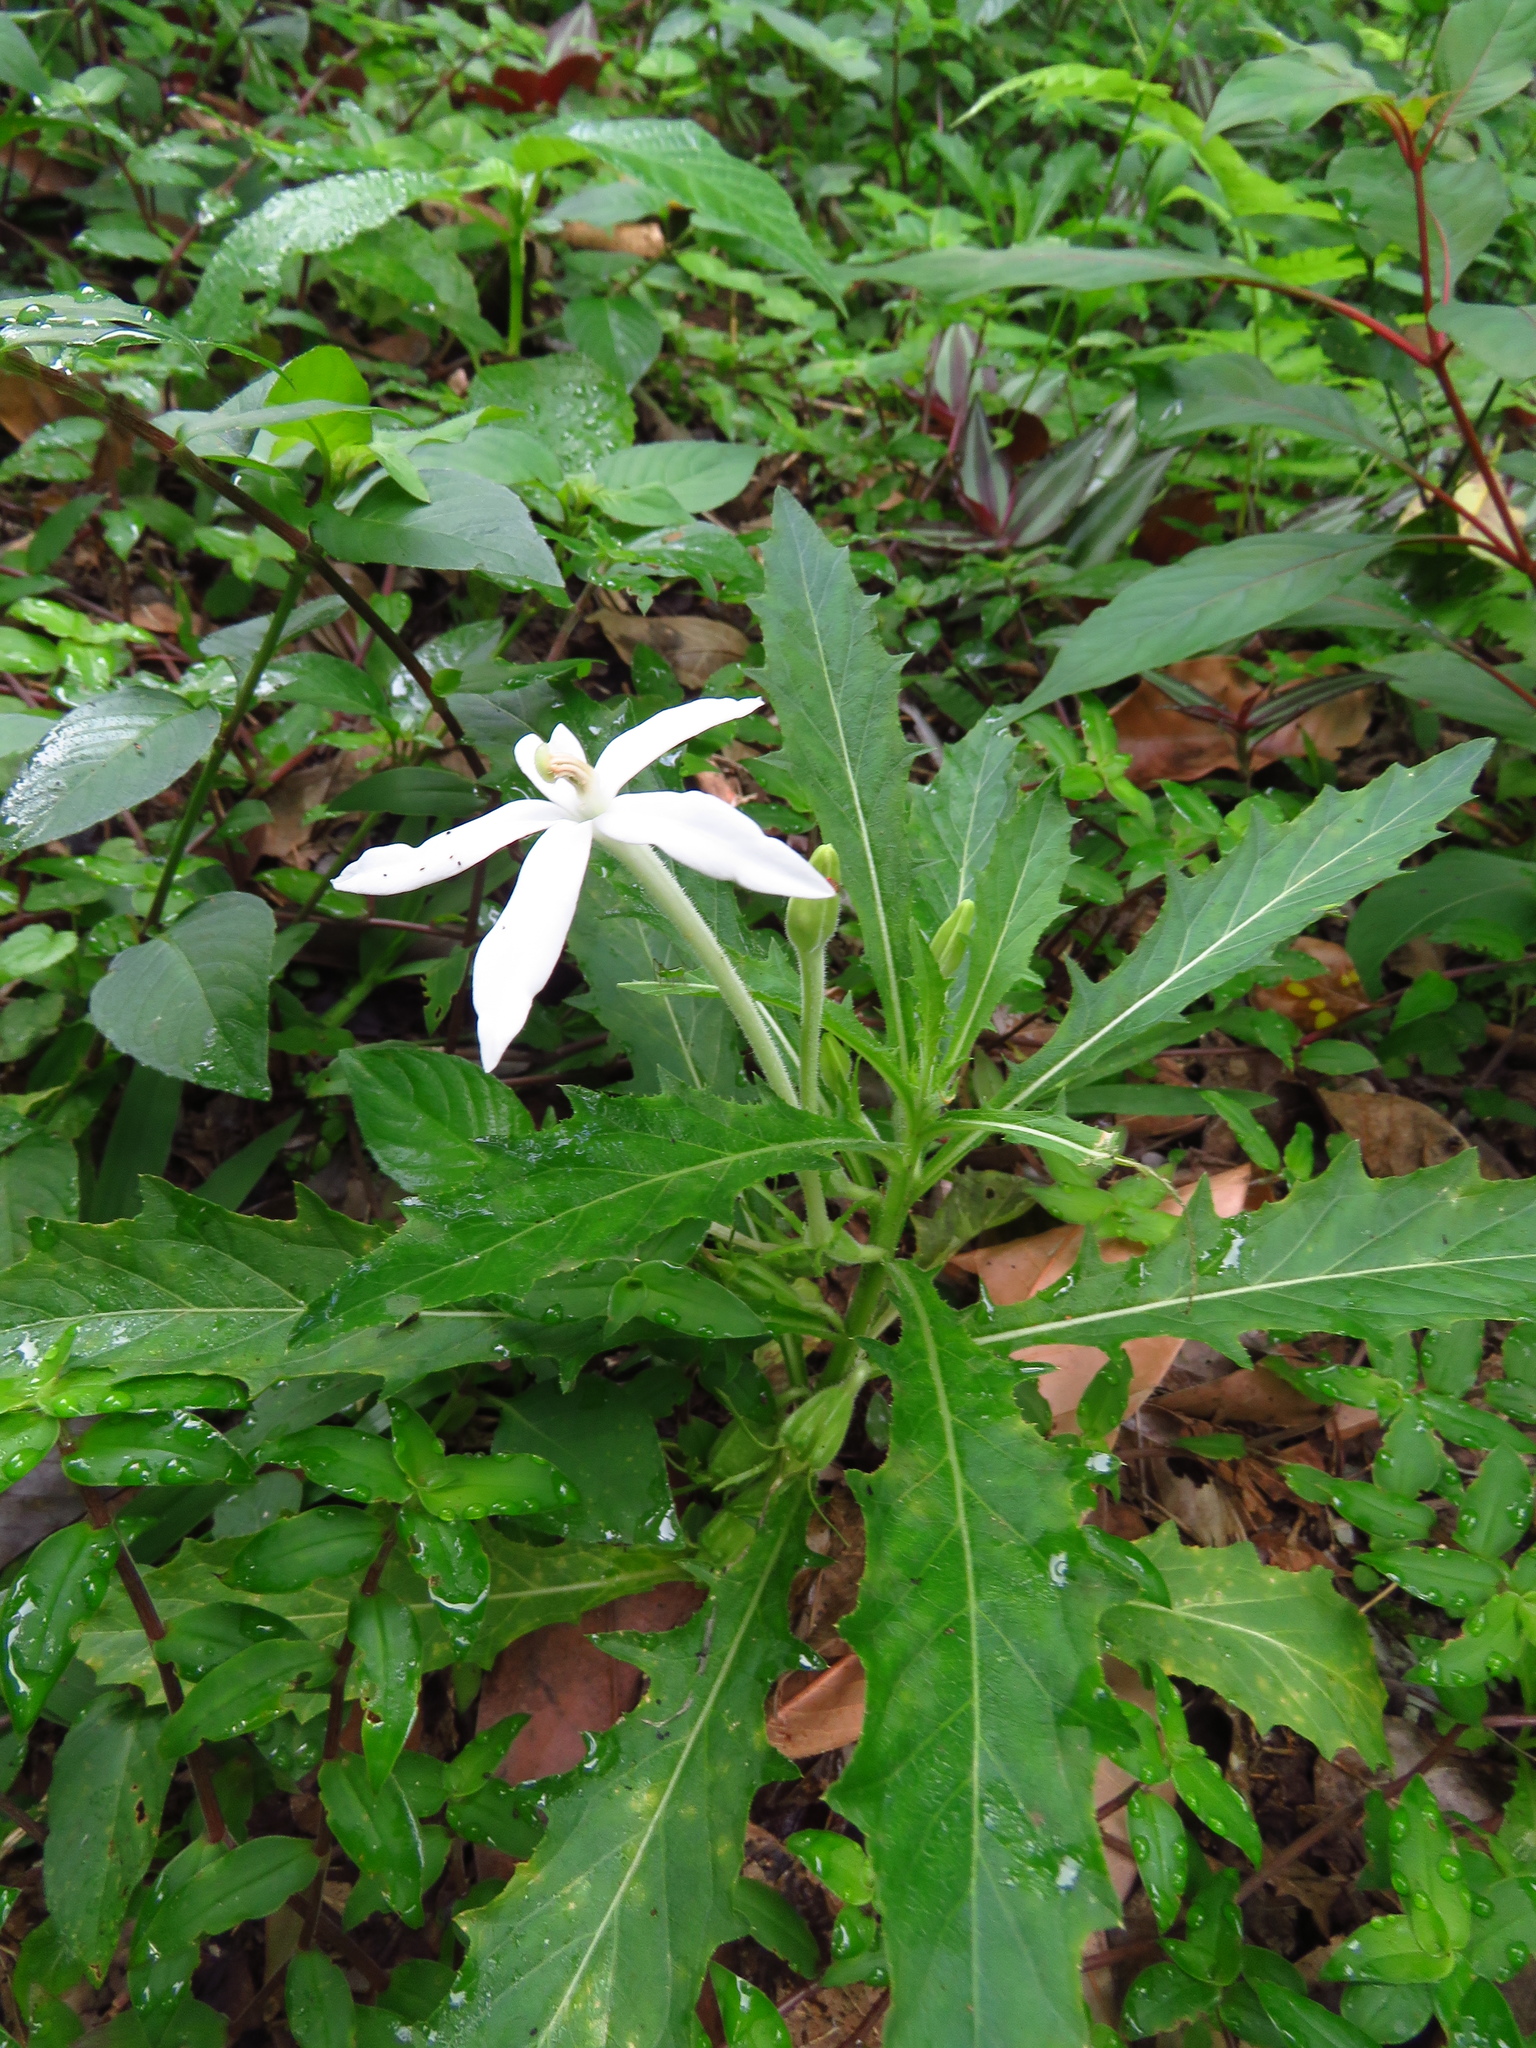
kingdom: Plantae
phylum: Tracheophyta
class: Magnoliopsida
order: Asterales
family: Campanulaceae
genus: Hippobroma
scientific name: Hippobroma longiflora
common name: Madamfate
